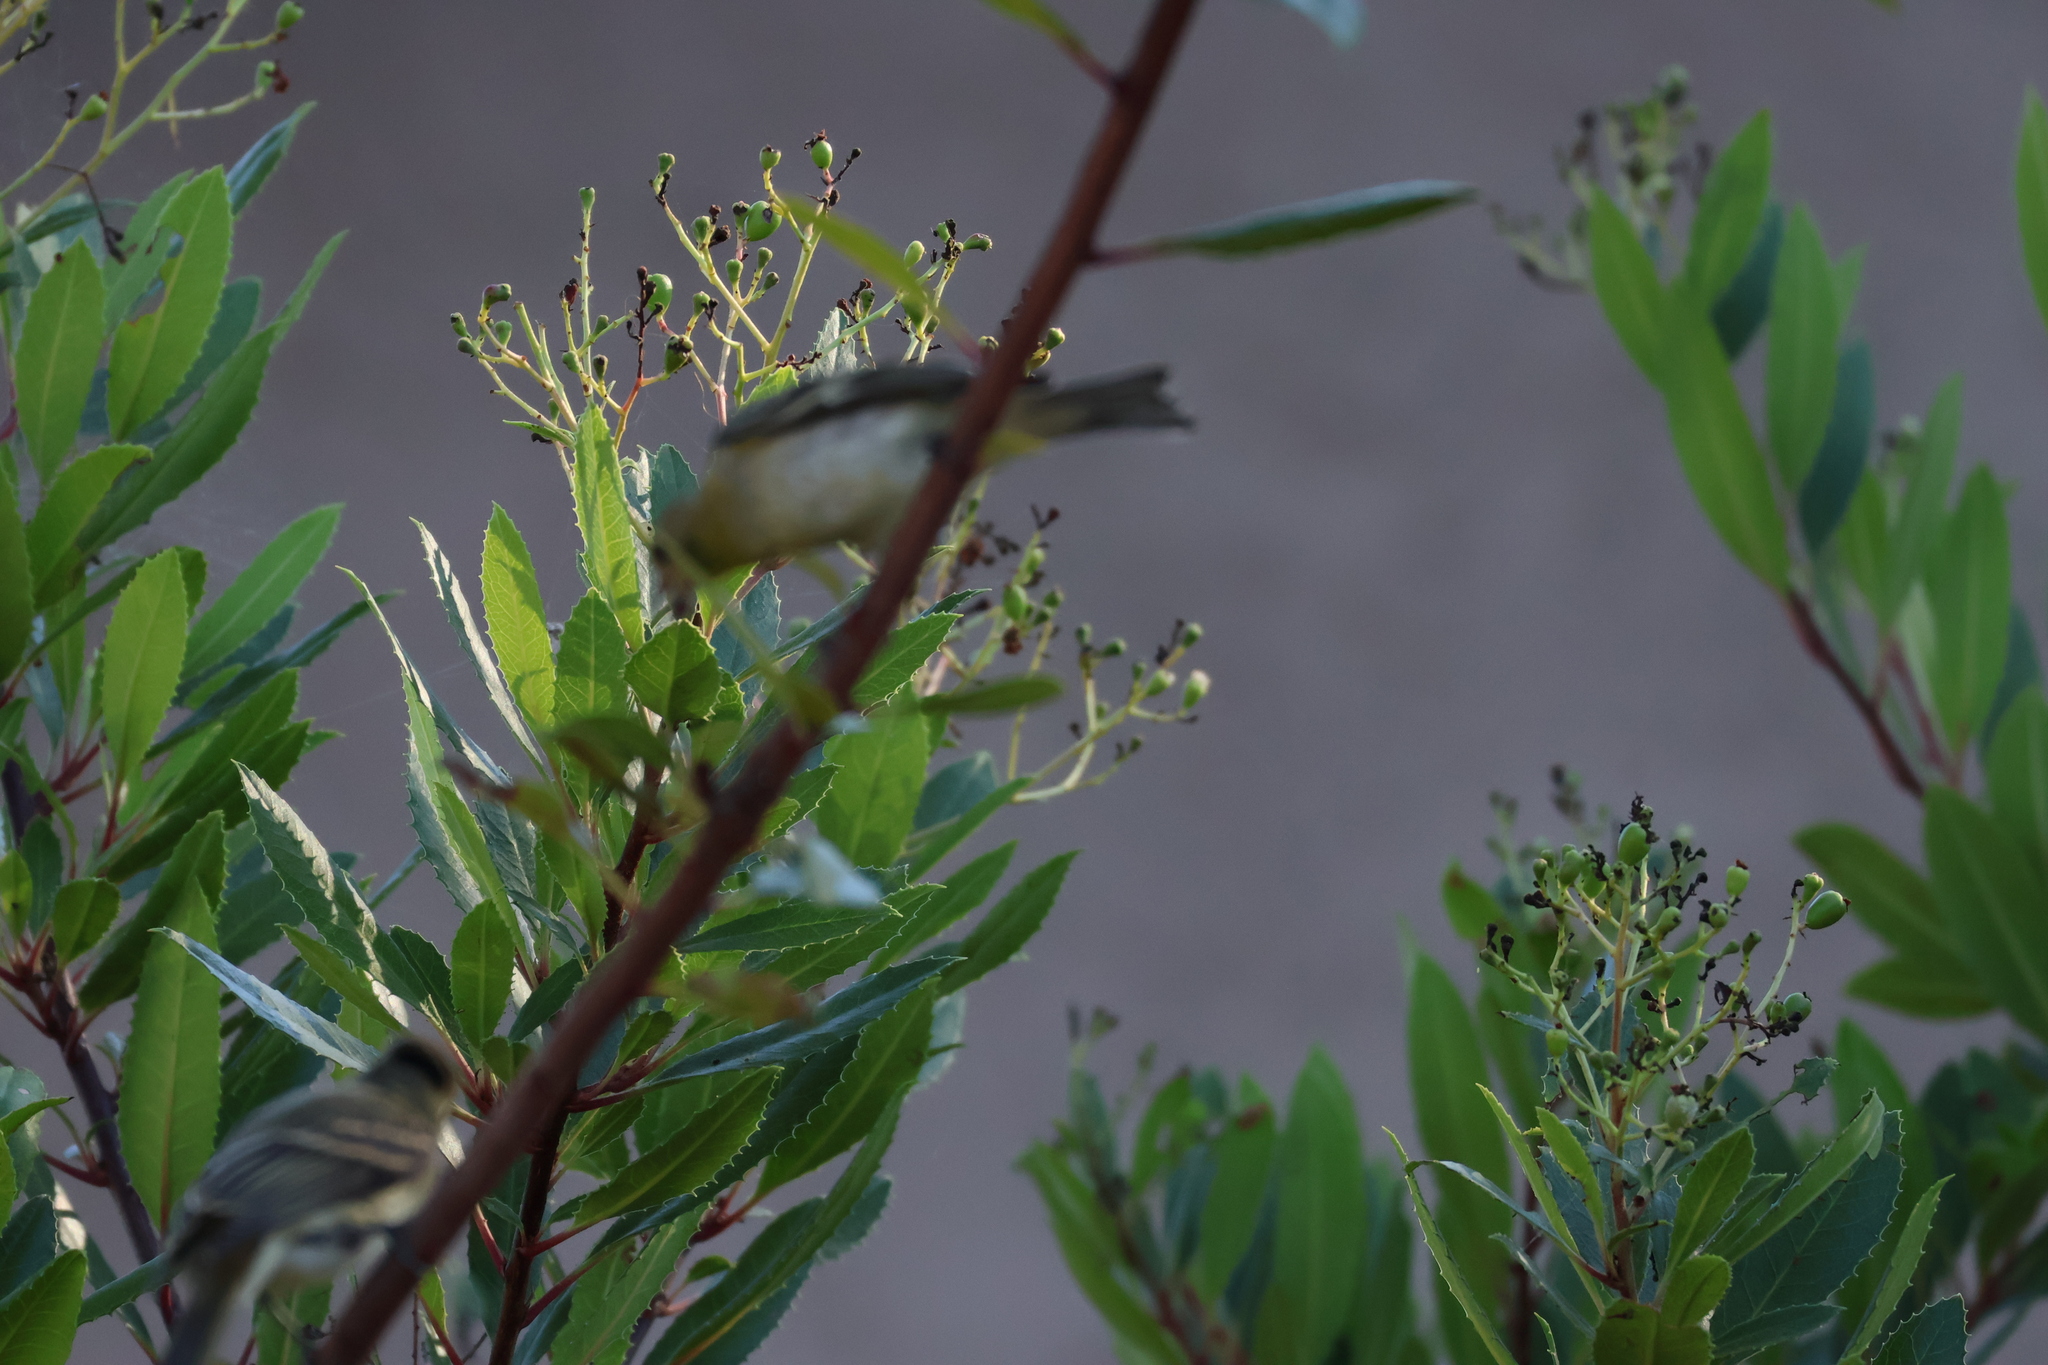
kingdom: Animalia
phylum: Chordata
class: Aves
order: Passeriformes
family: Fringillidae
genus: Spinus
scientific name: Spinus psaltria
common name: Lesser goldfinch
